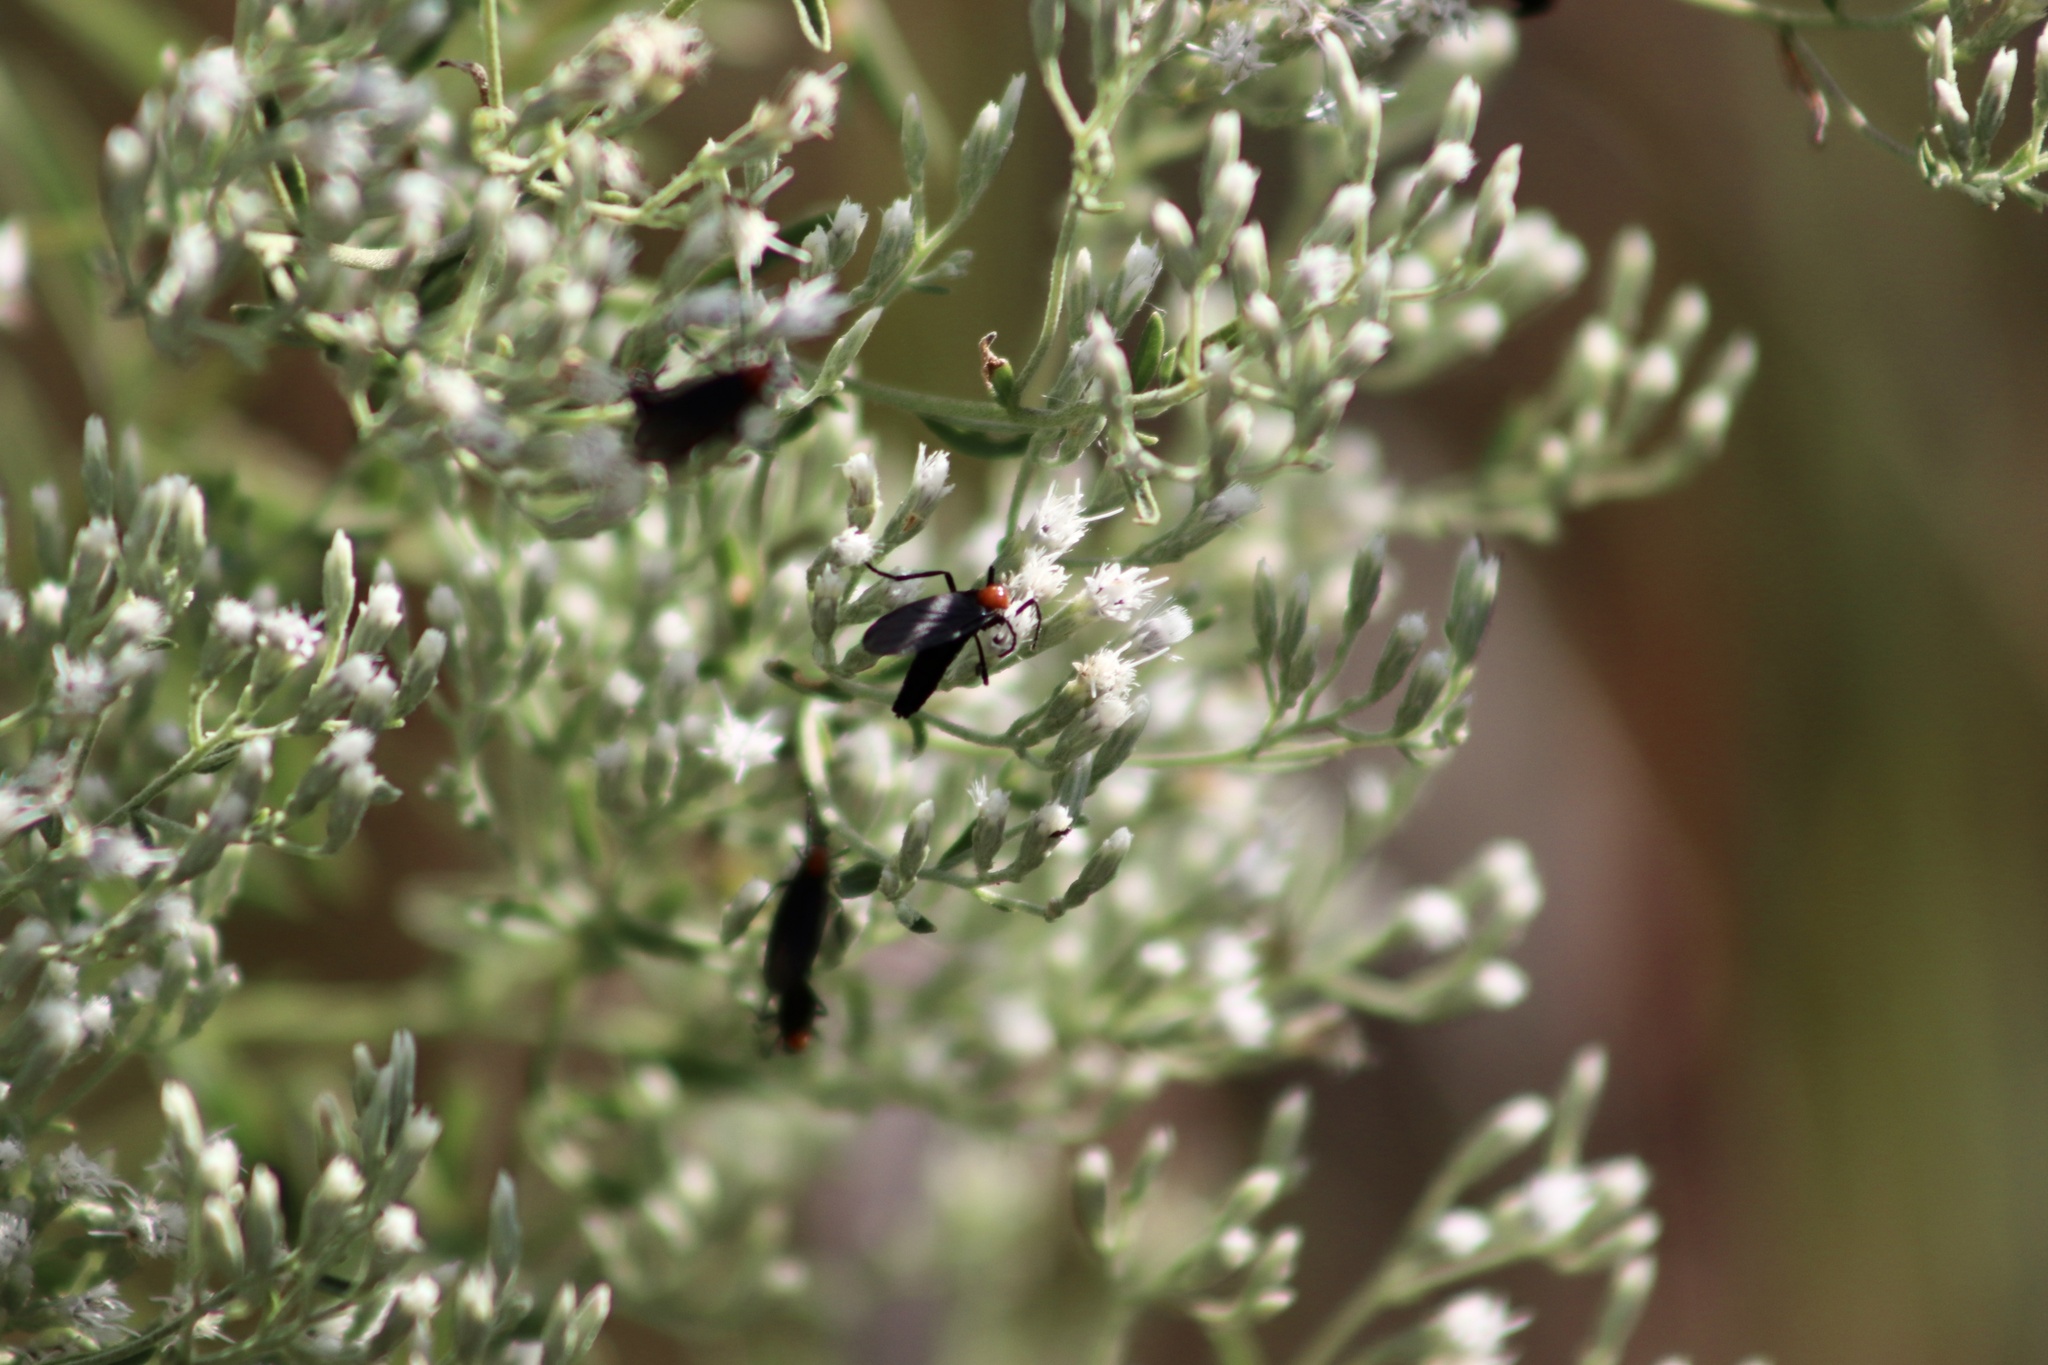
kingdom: Animalia
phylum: Arthropoda
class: Insecta
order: Diptera
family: Bibionidae
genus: Plecia
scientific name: Plecia nearctica
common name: March fly
